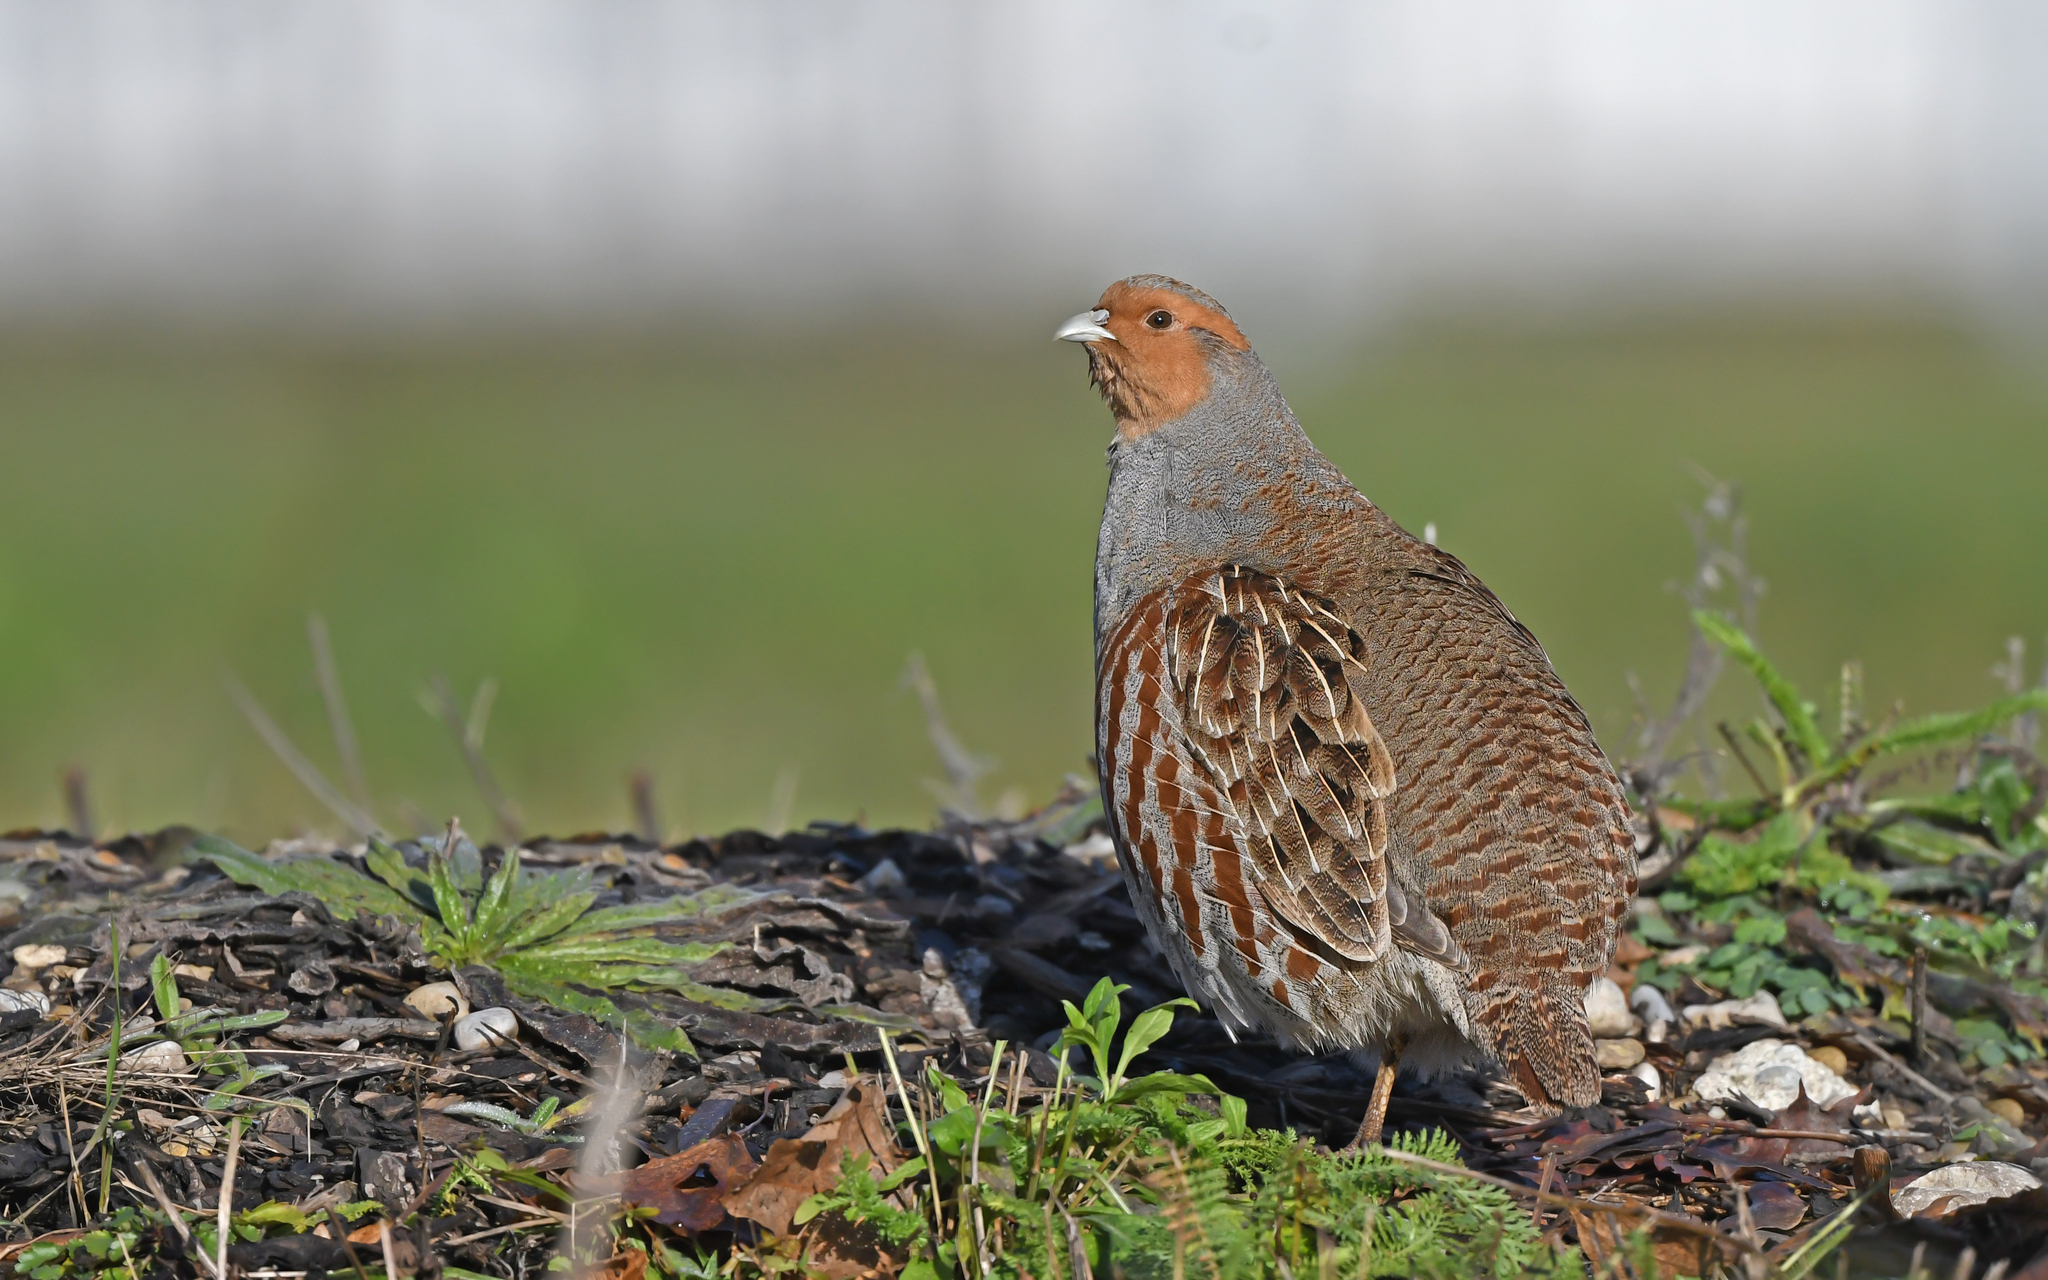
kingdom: Animalia
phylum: Chordata
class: Aves
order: Galliformes
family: Phasianidae
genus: Perdix
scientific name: Perdix perdix
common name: Grey partridge
